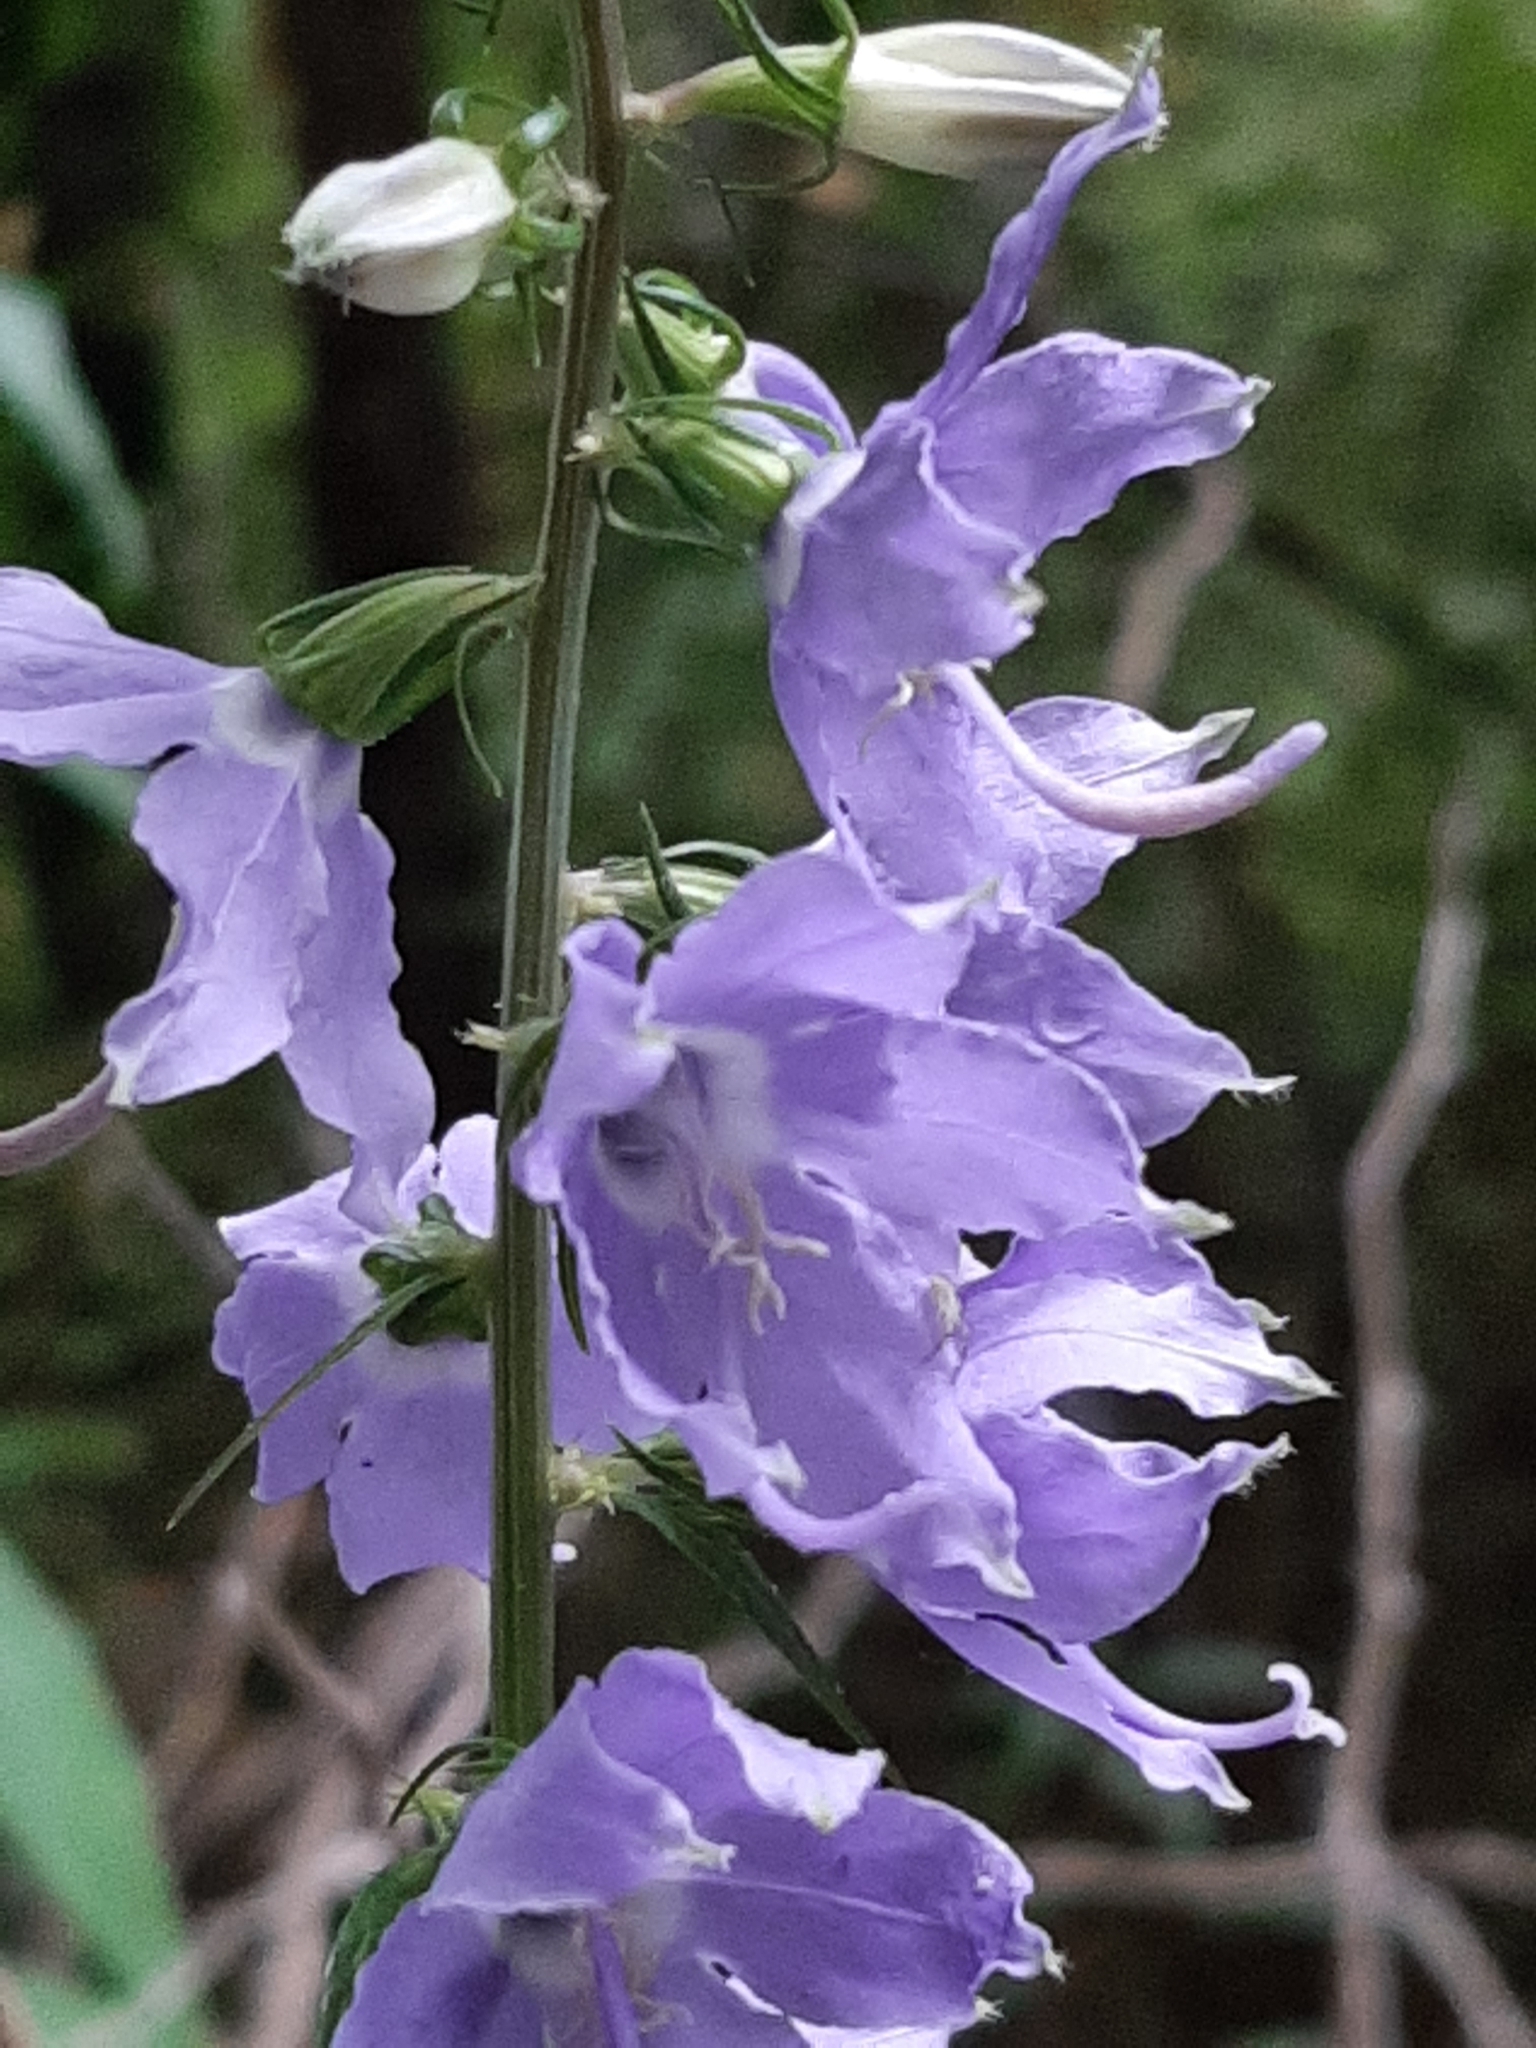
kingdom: Plantae
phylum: Tracheophyta
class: Magnoliopsida
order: Asterales
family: Campanulaceae
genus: Campanulastrum
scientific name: Campanulastrum americanum
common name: American bellflower
